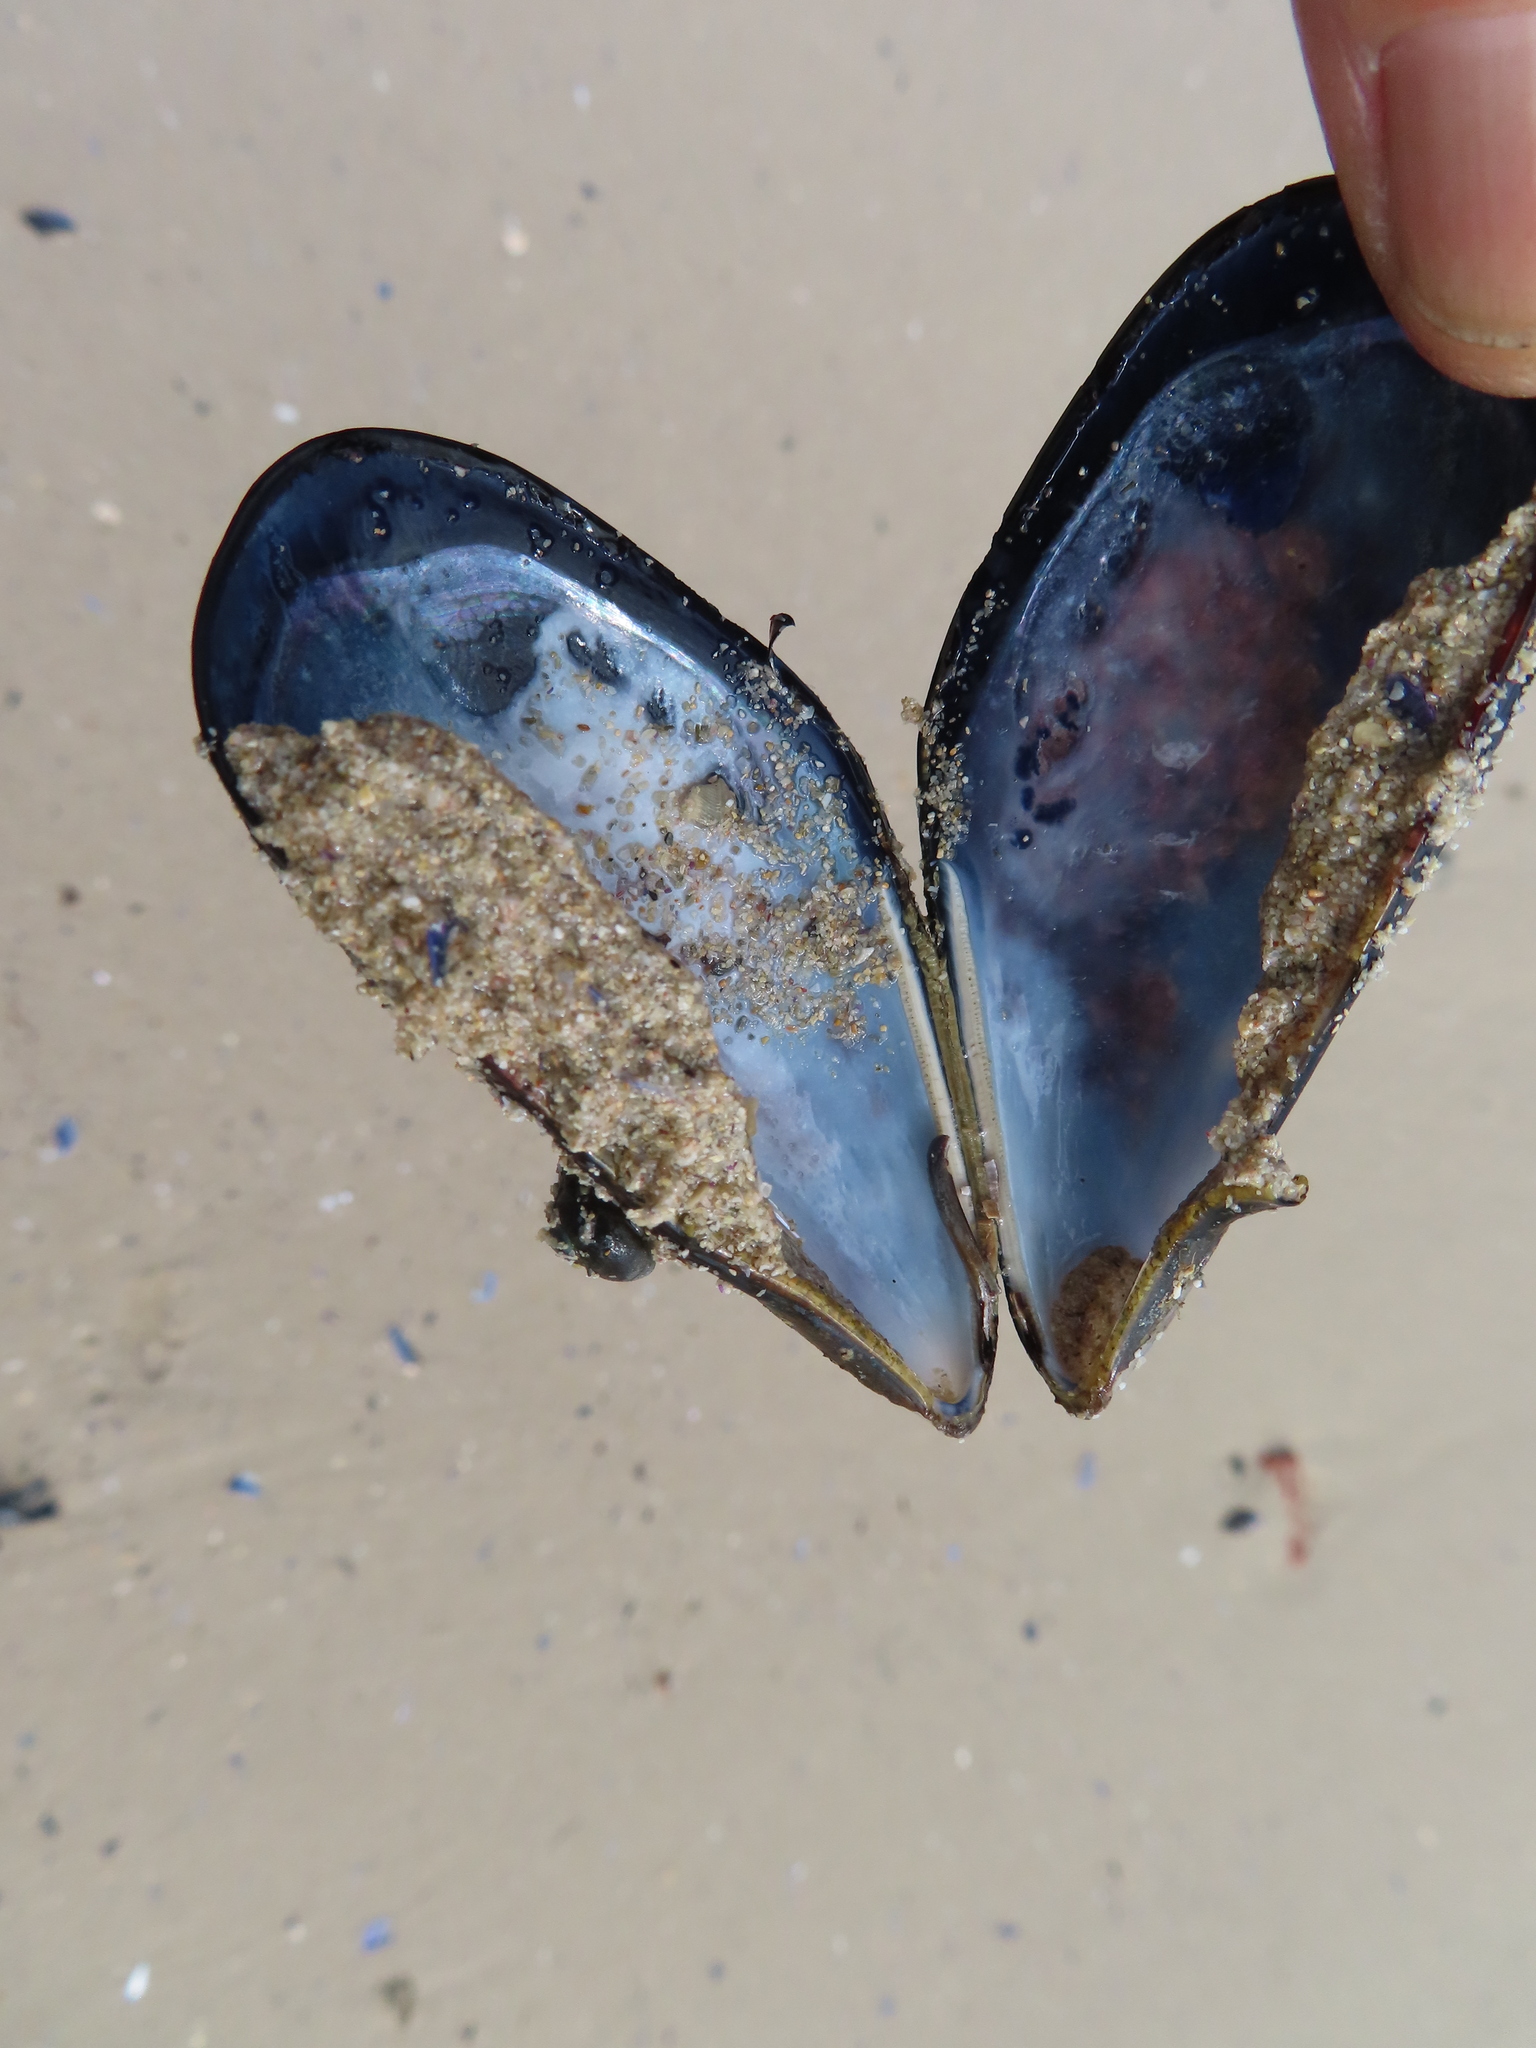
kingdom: Animalia
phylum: Mollusca
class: Bivalvia
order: Mytilida
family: Mytilidae
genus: Mytilus
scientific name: Mytilus galloprovincialis
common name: Mediterranean mussel
